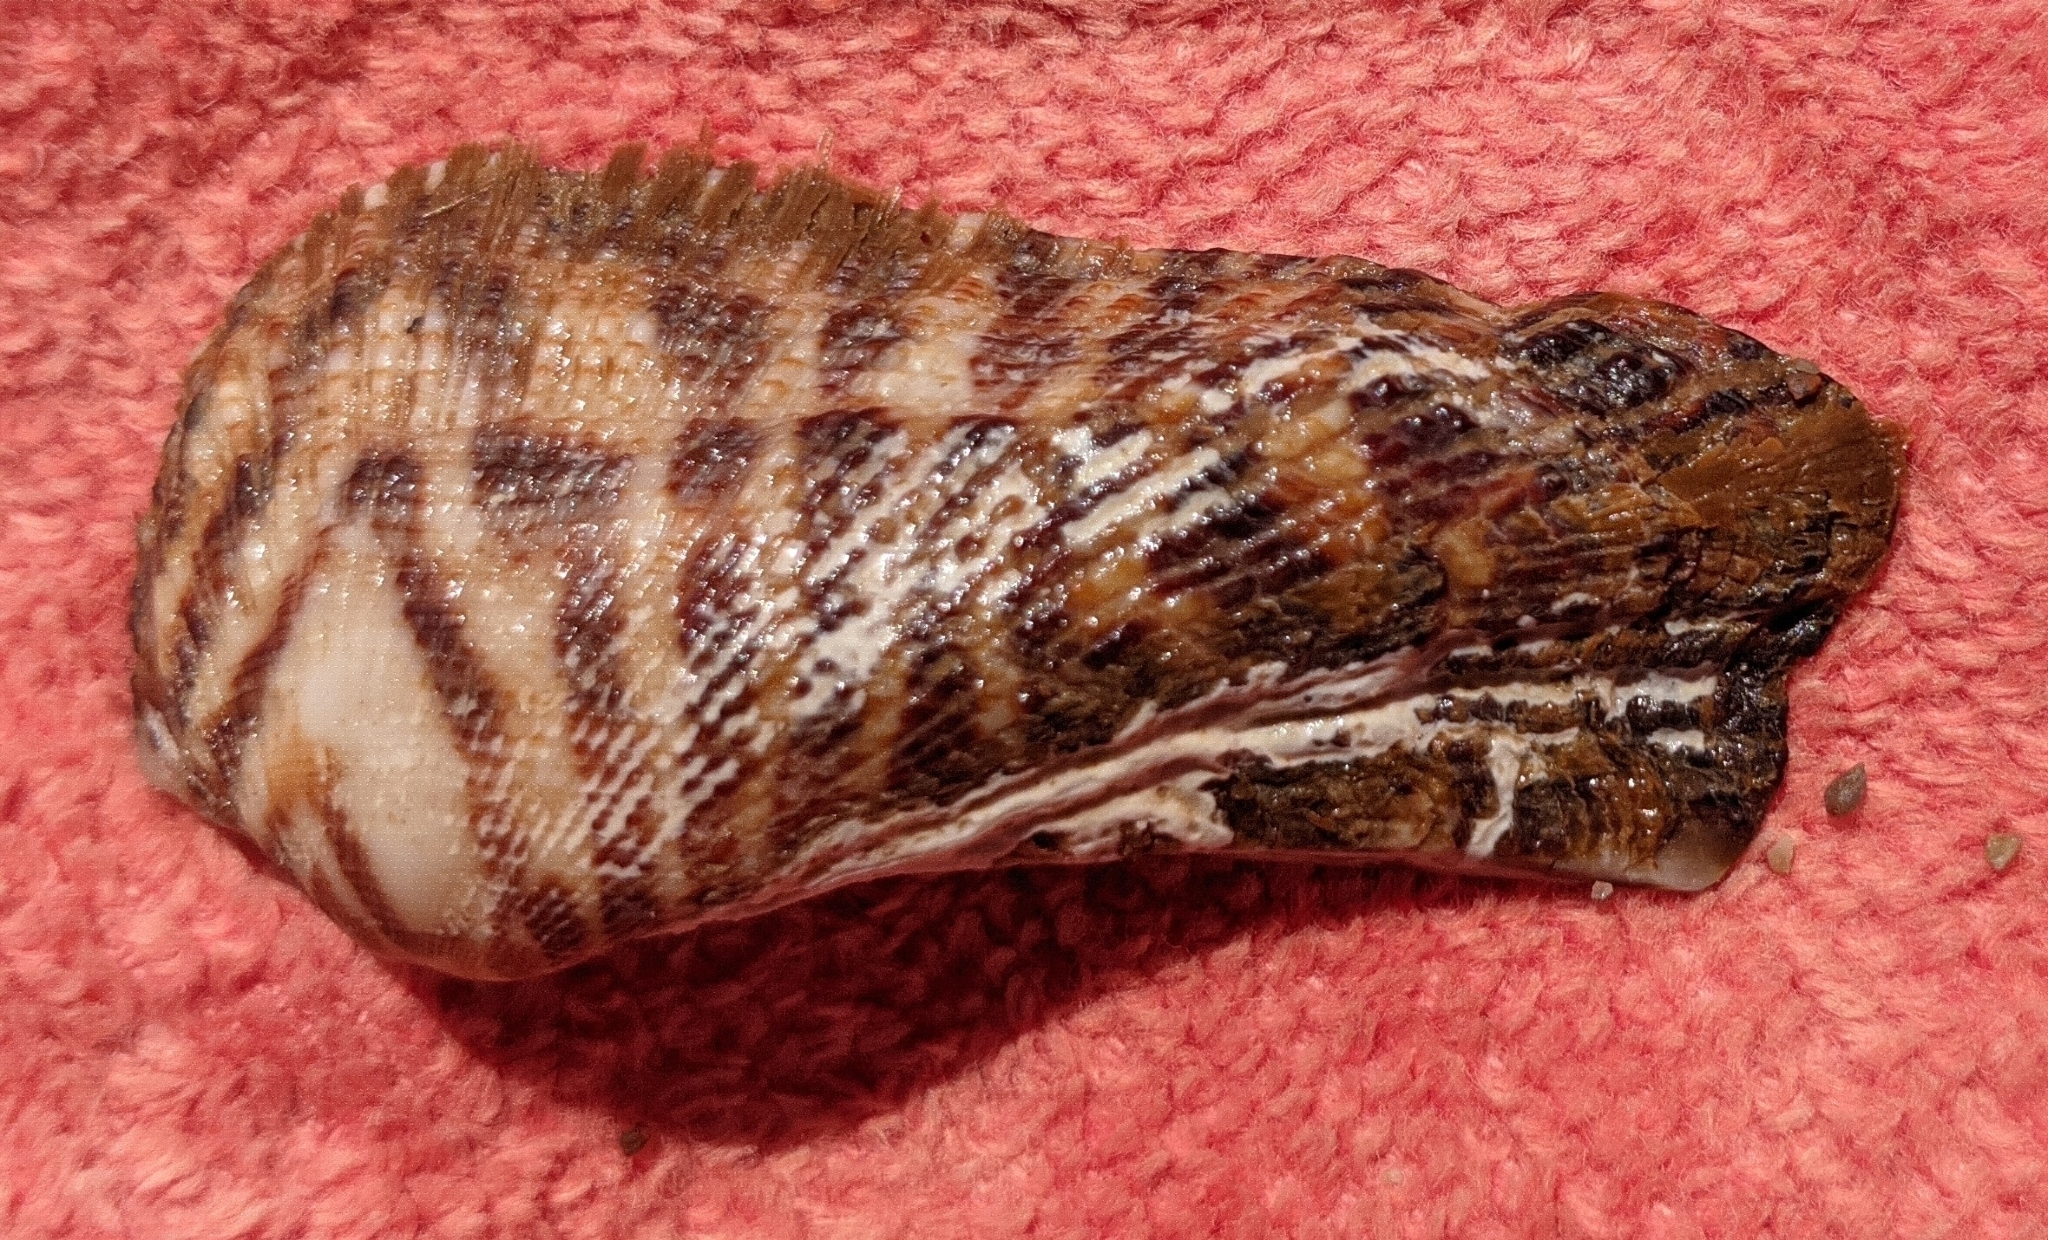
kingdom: Animalia
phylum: Mollusca
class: Bivalvia
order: Arcida
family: Arcidae
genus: Arca
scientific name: Arca noae
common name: Noah's arch
